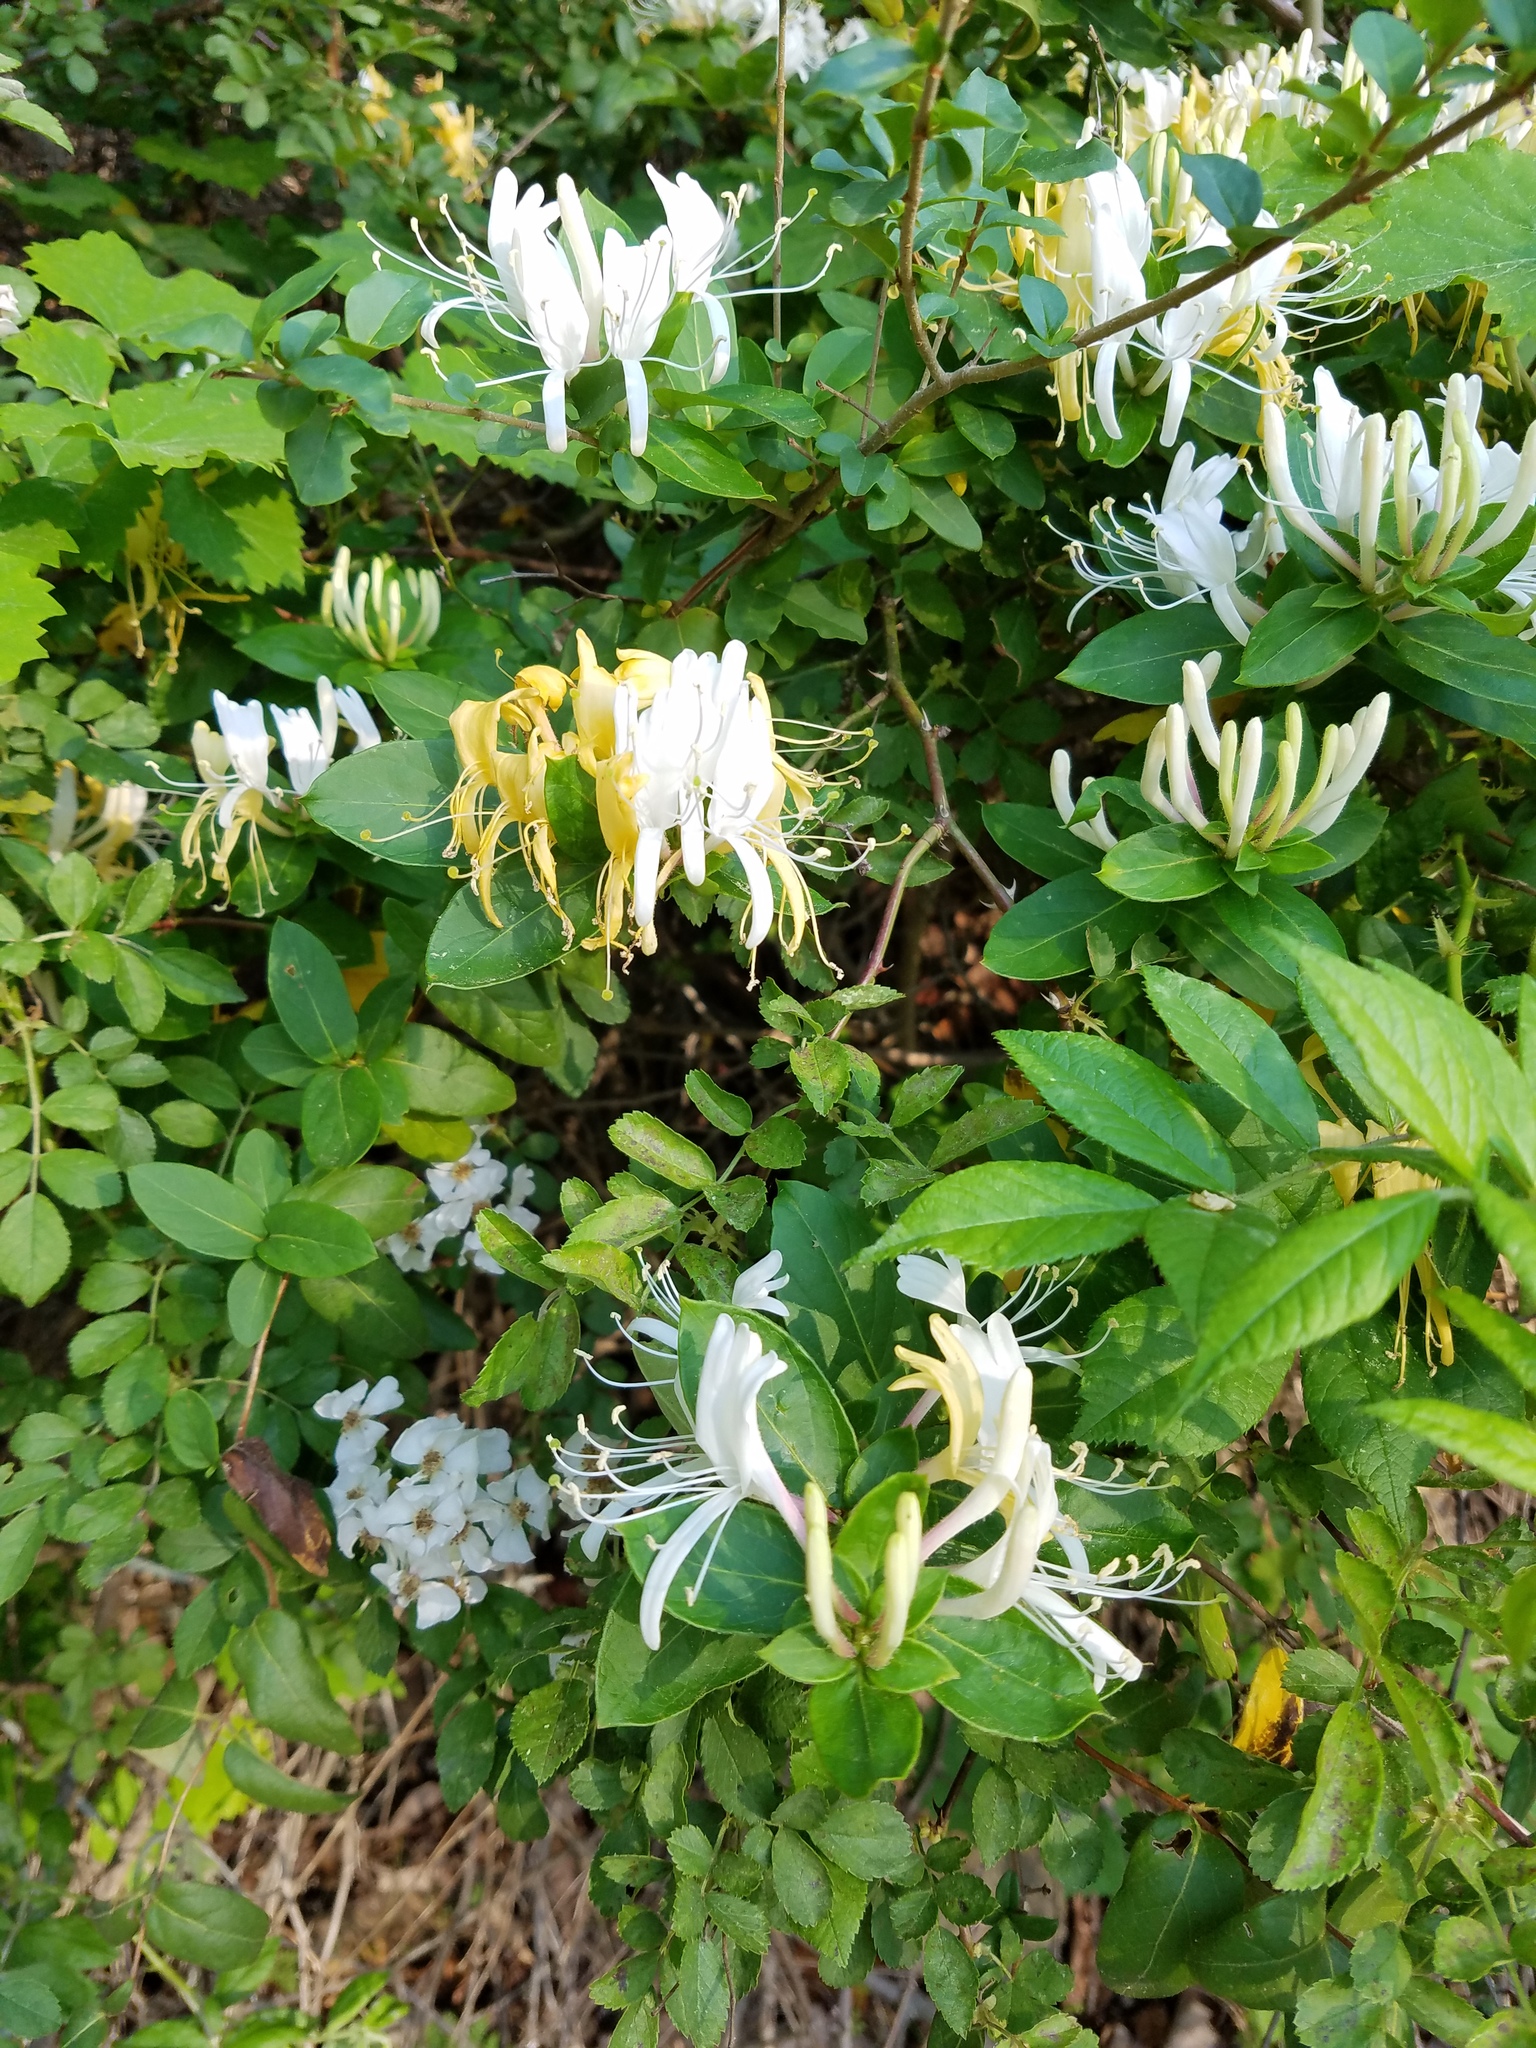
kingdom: Plantae
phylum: Tracheophyta
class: Magnoliopsida
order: Dipsacales
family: Caprifoliaceae
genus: Lonicera
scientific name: Lonicera japonica
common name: Japanese honeysuckle
